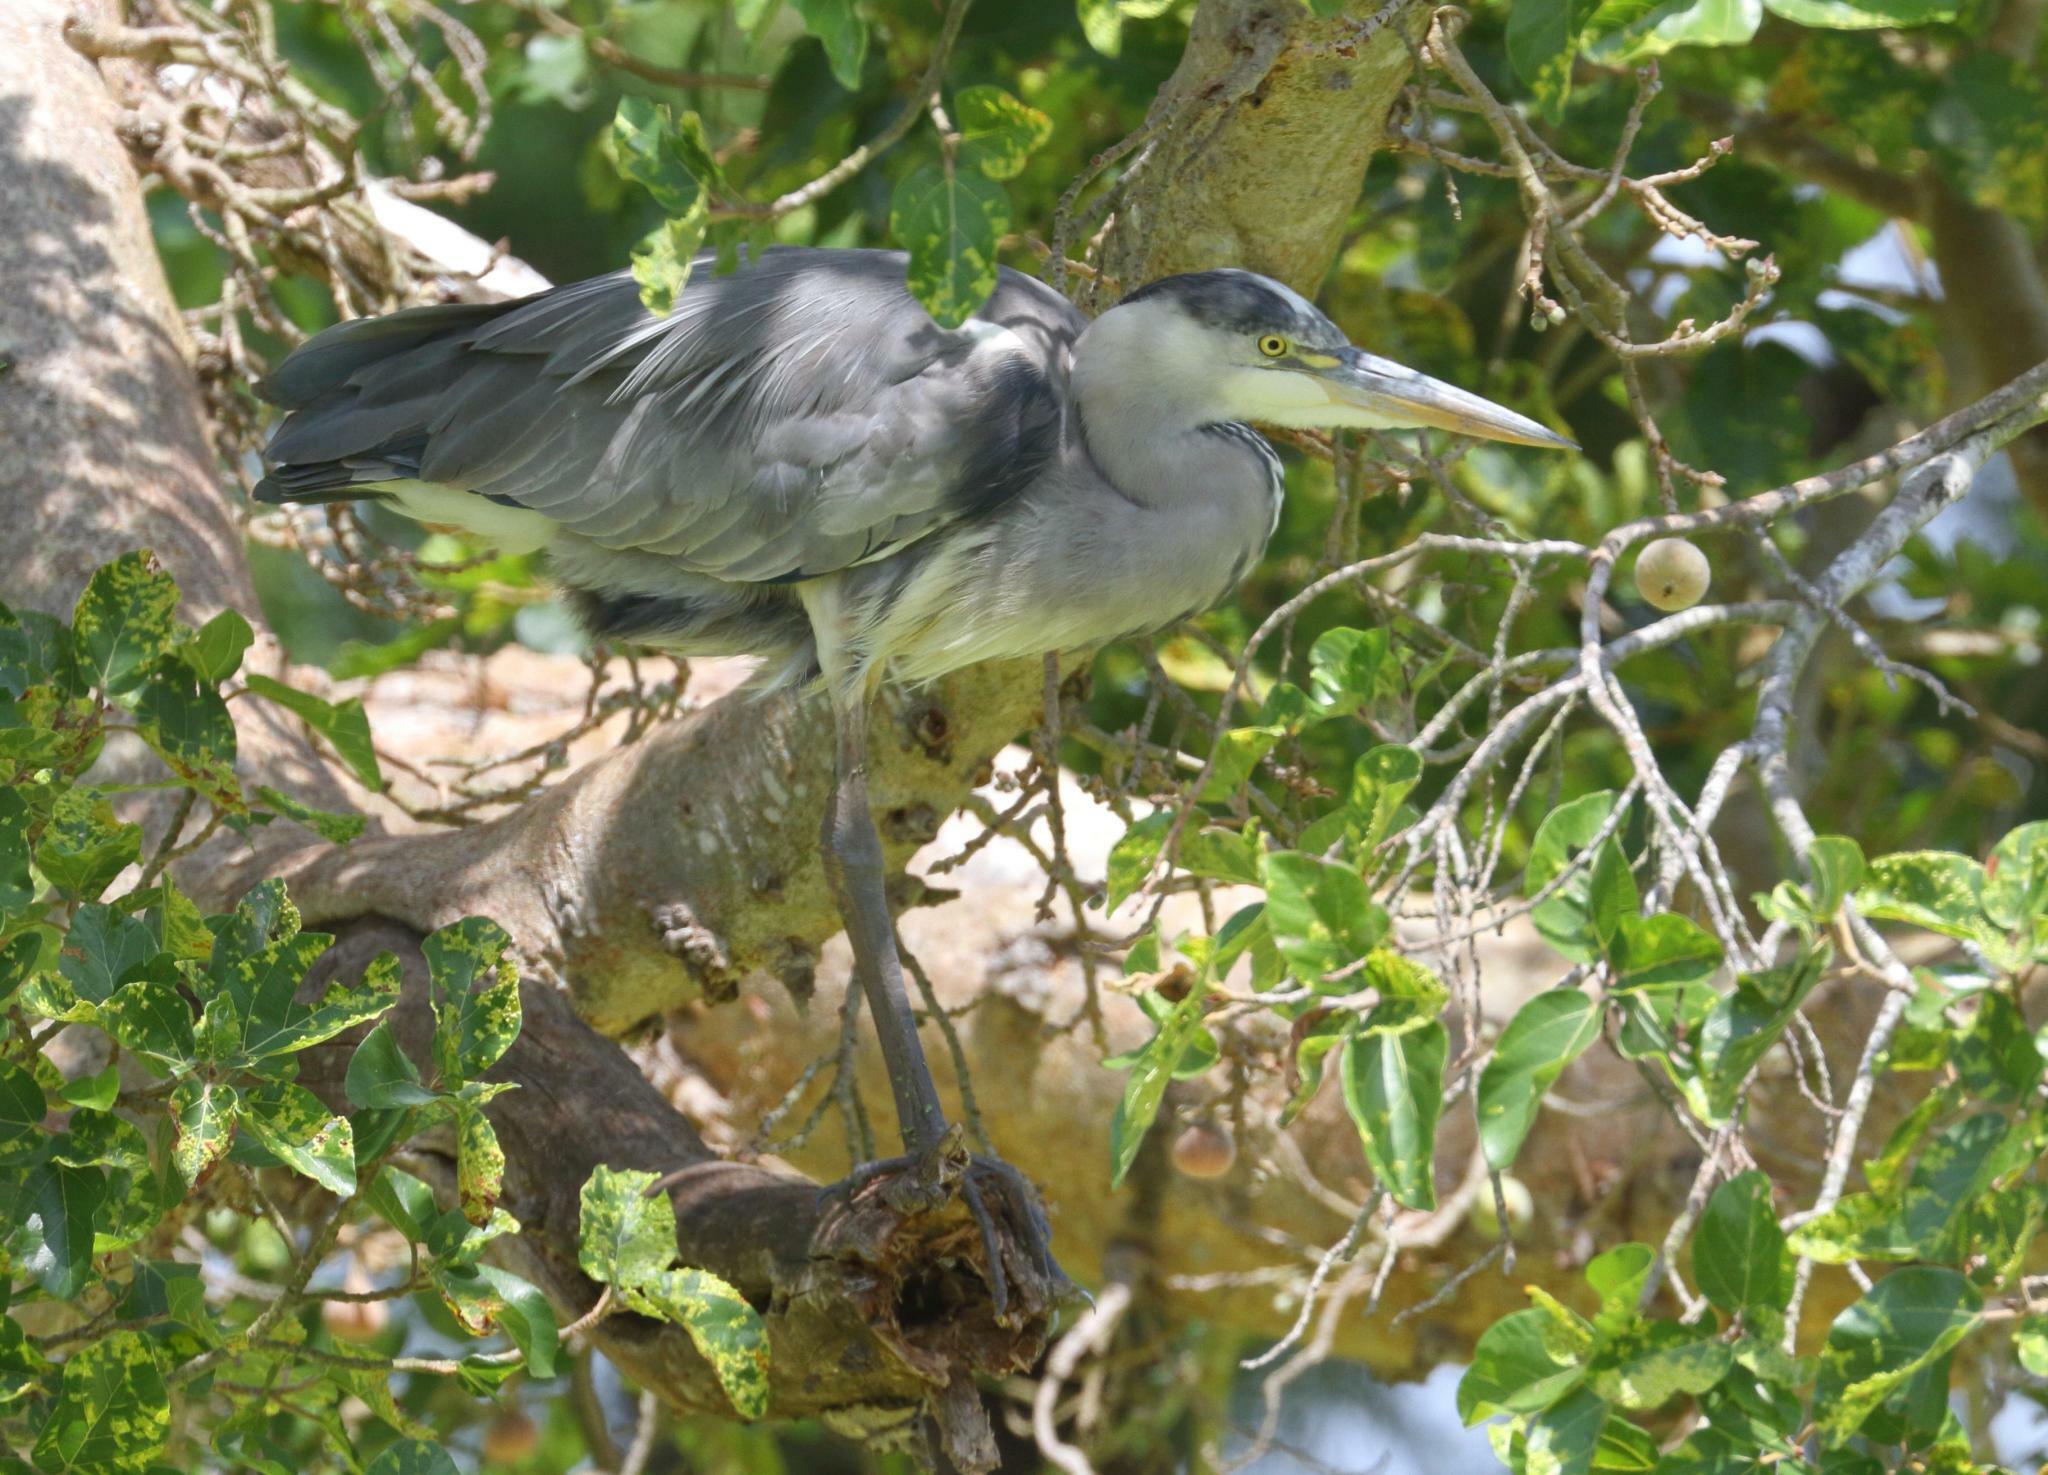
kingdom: Animalia
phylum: Chordata
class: Aves
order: Pelecaniformes
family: Ardeidae
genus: Ardea
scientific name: Ardea cinerea
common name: Grey heron
